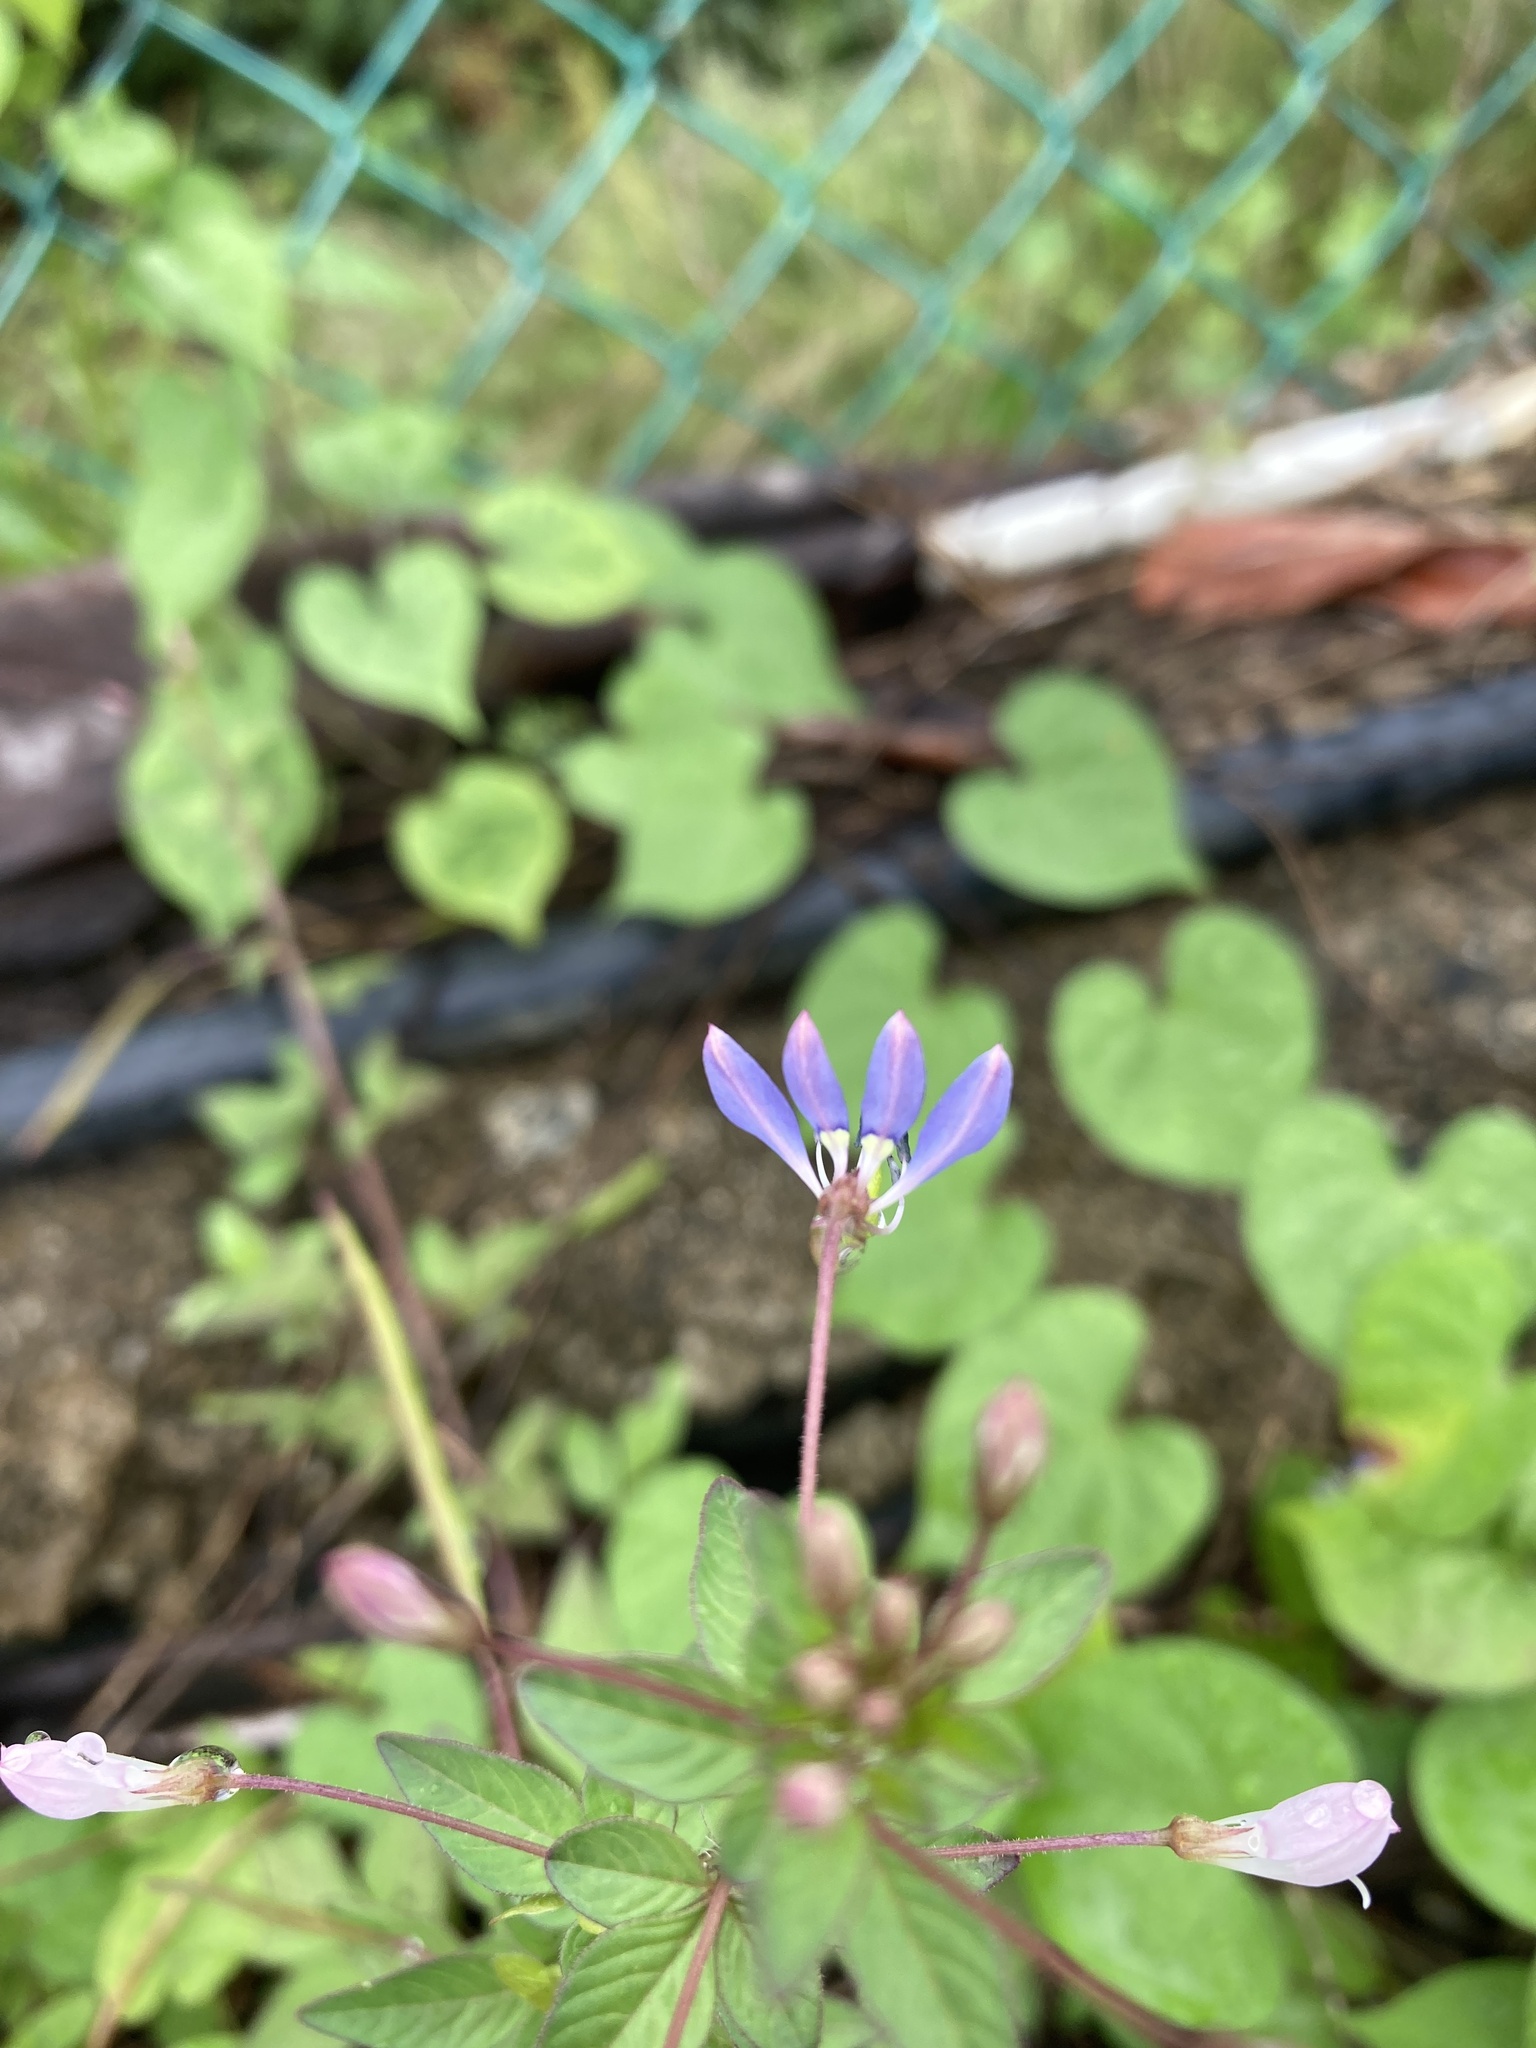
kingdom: Plantae
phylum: Tracheophyta
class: Magnoliopsida
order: Brassicales
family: Cleomaceae
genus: Sieruela
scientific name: Sieruela rutidosperma
